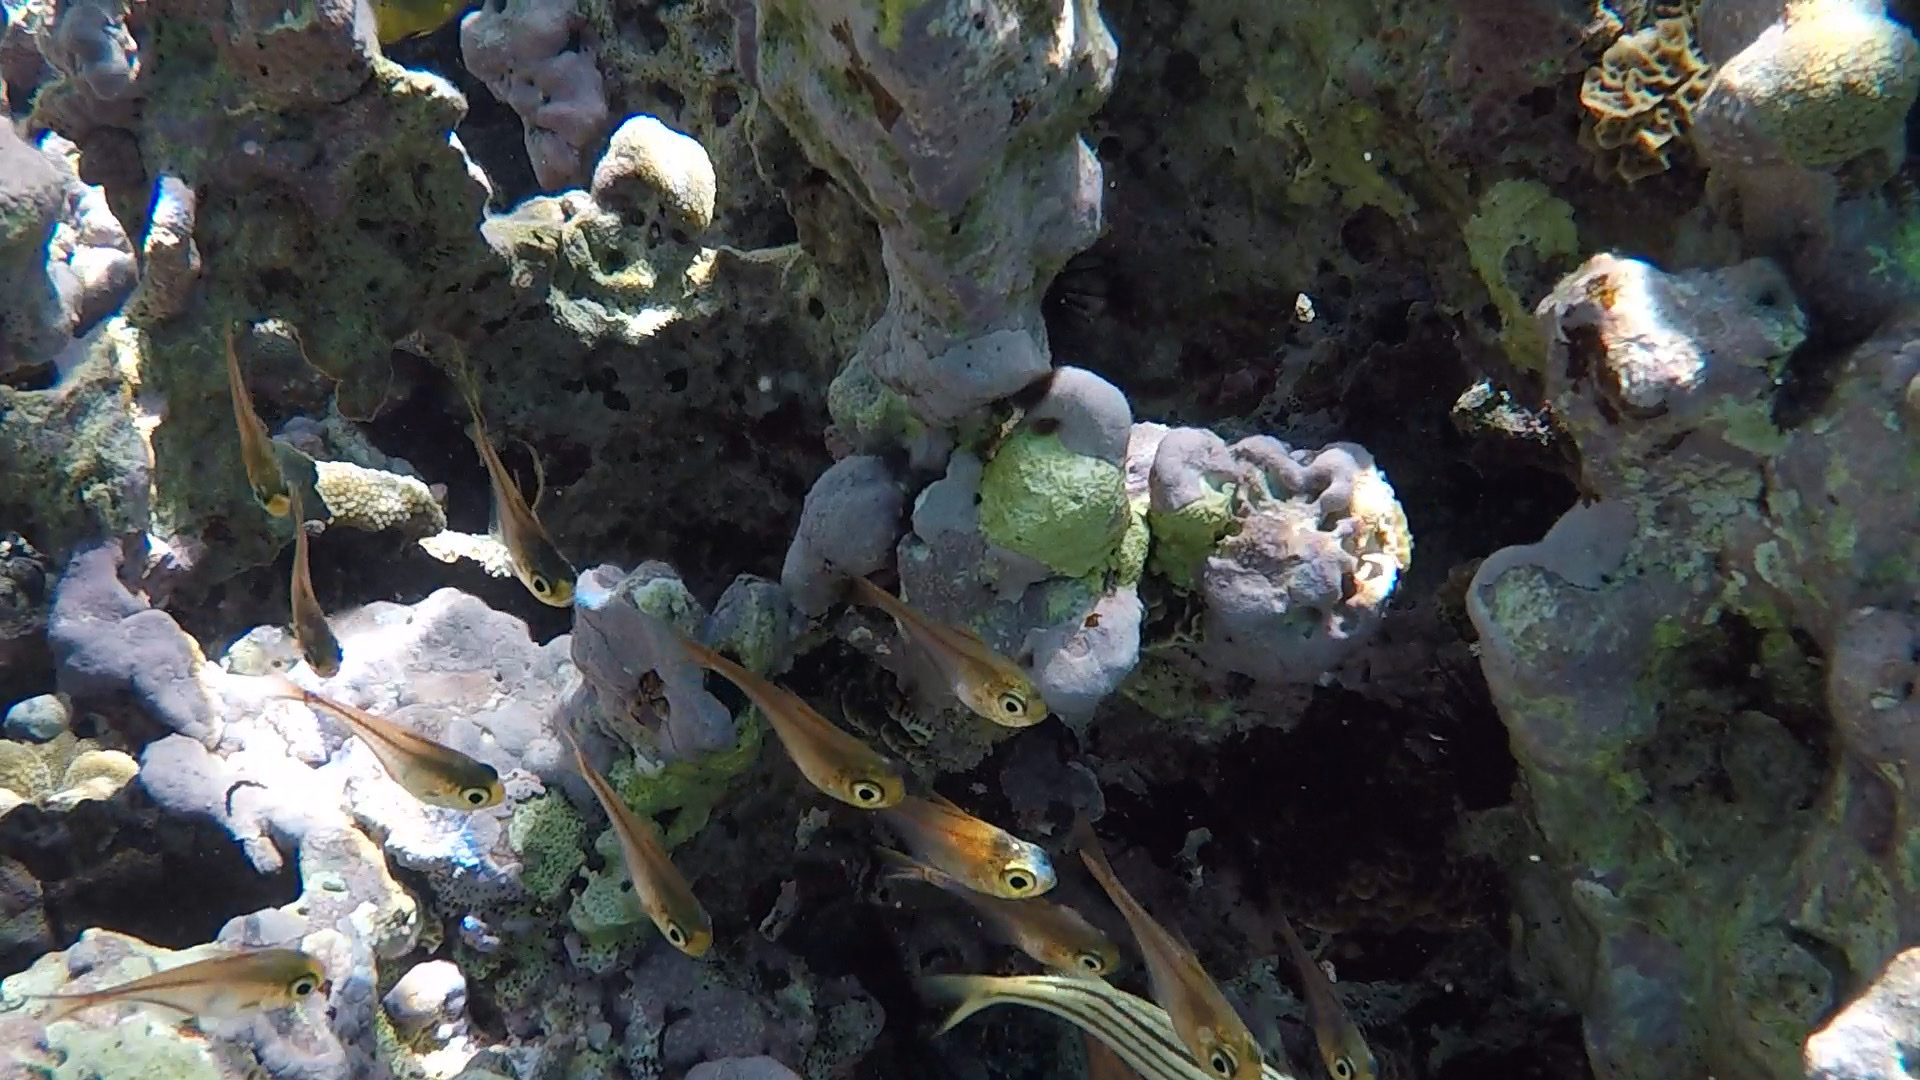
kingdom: Animalia
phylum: Chordata
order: Perciformes
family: Pempheridae
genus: Pempheris
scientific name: Pempheris schomburgkii
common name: Glassy sweeper
